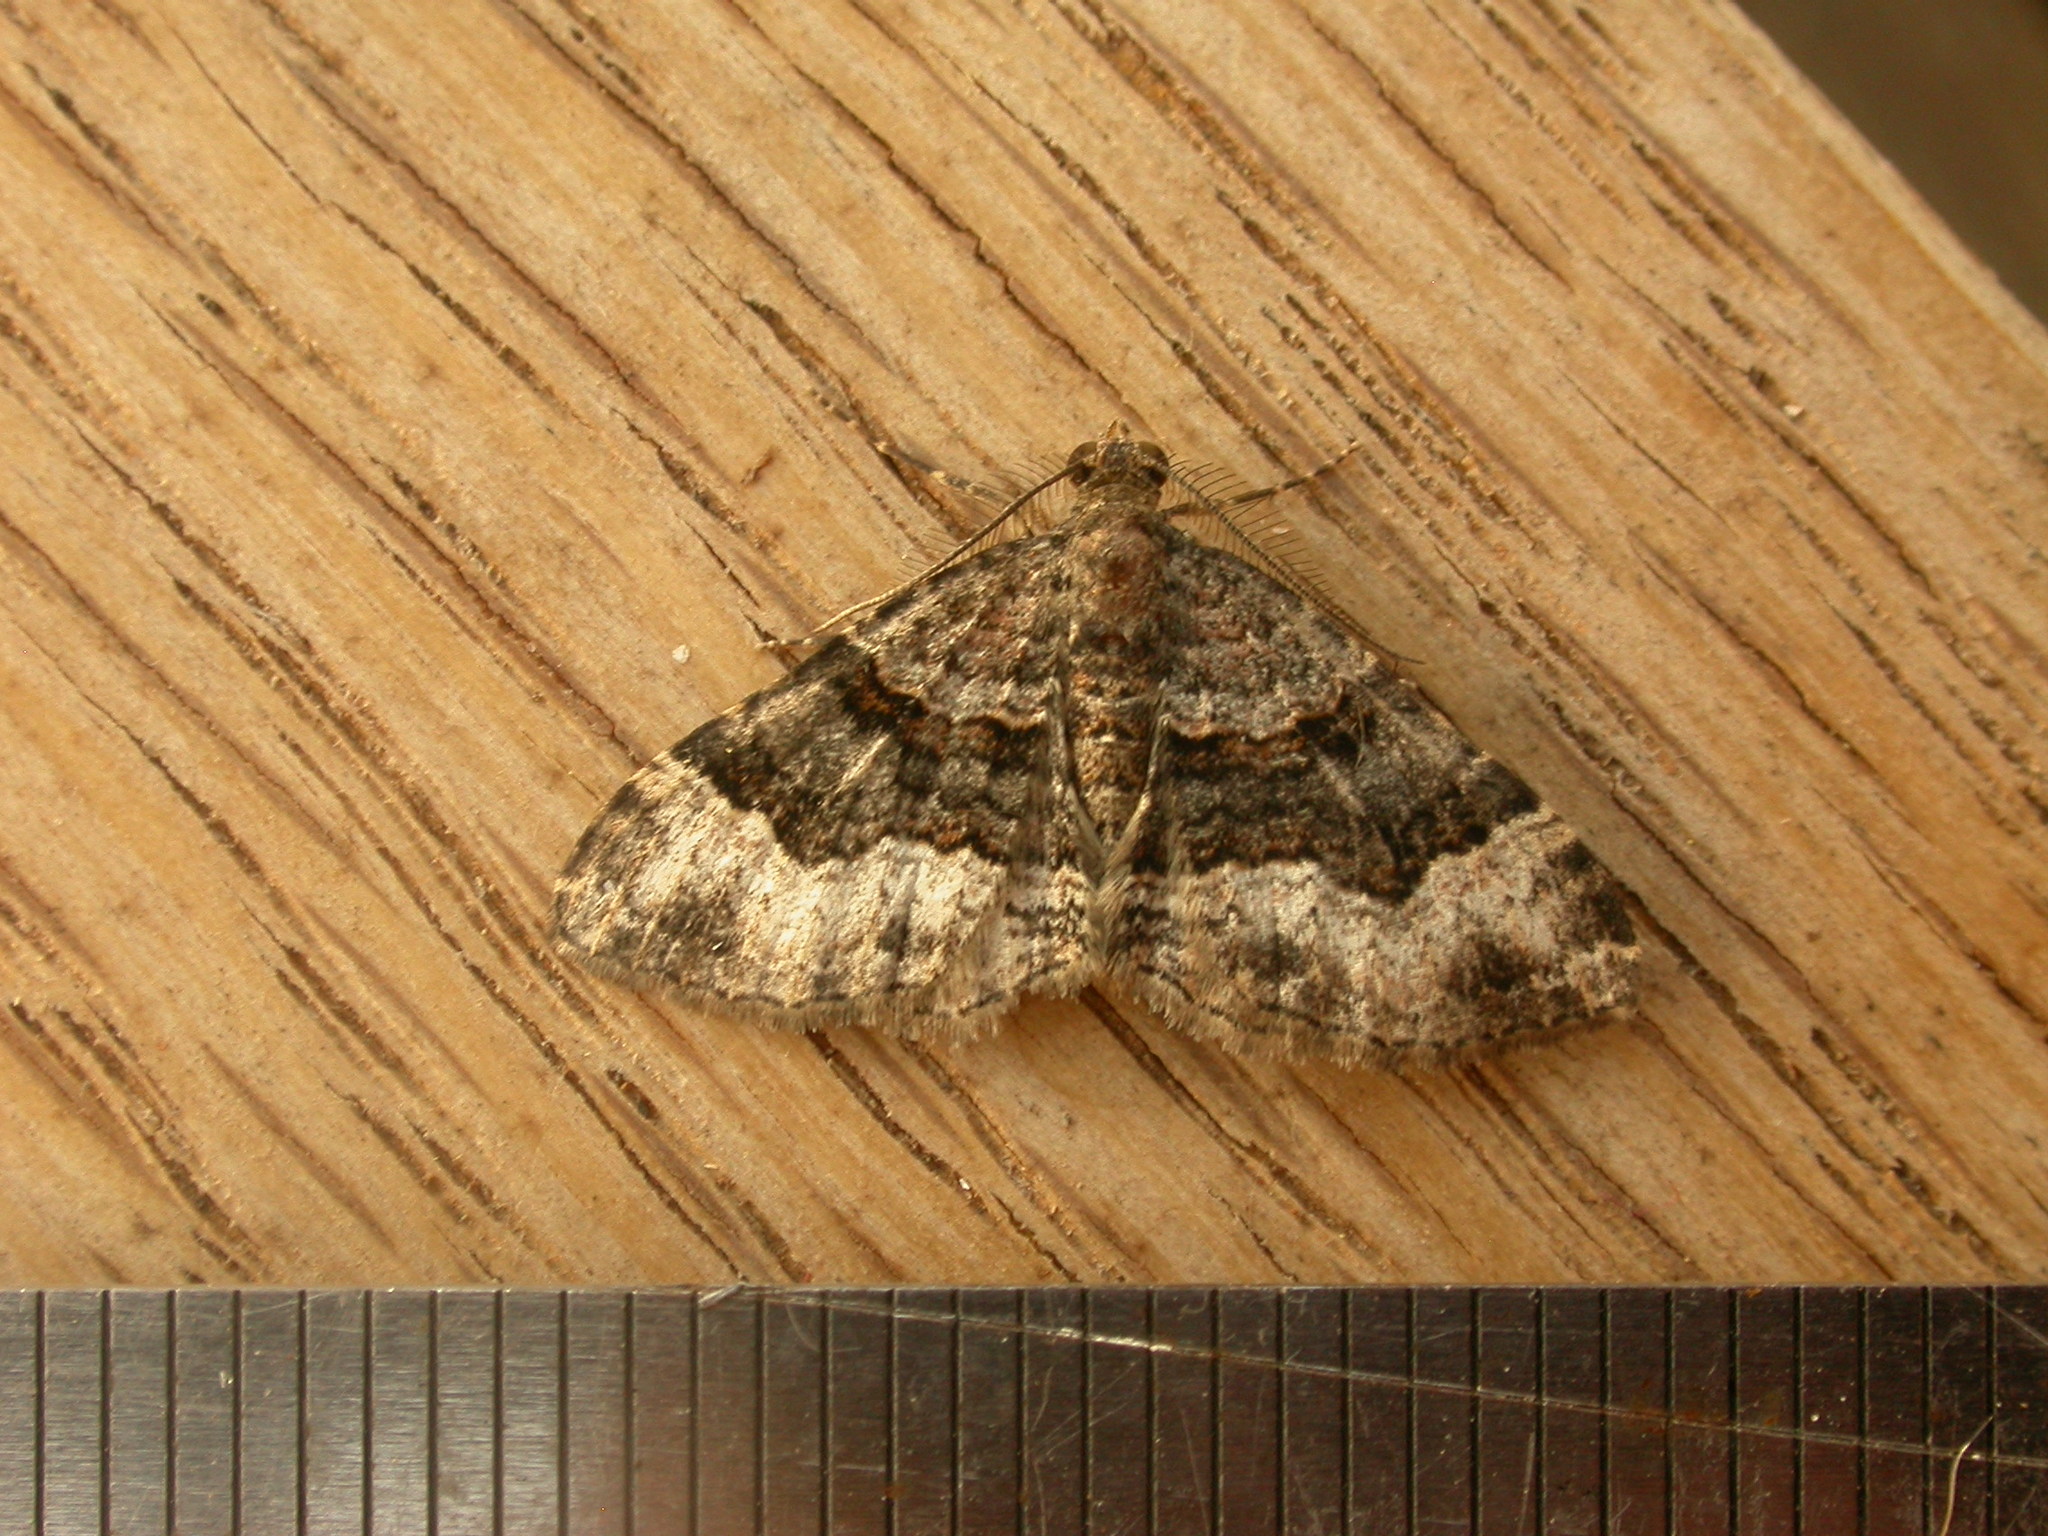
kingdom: Animalia
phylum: Arthropoda
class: Insecta
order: Lepidoptera
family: Geometridae
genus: Epyaxa
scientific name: Epyaxa sodaliata
